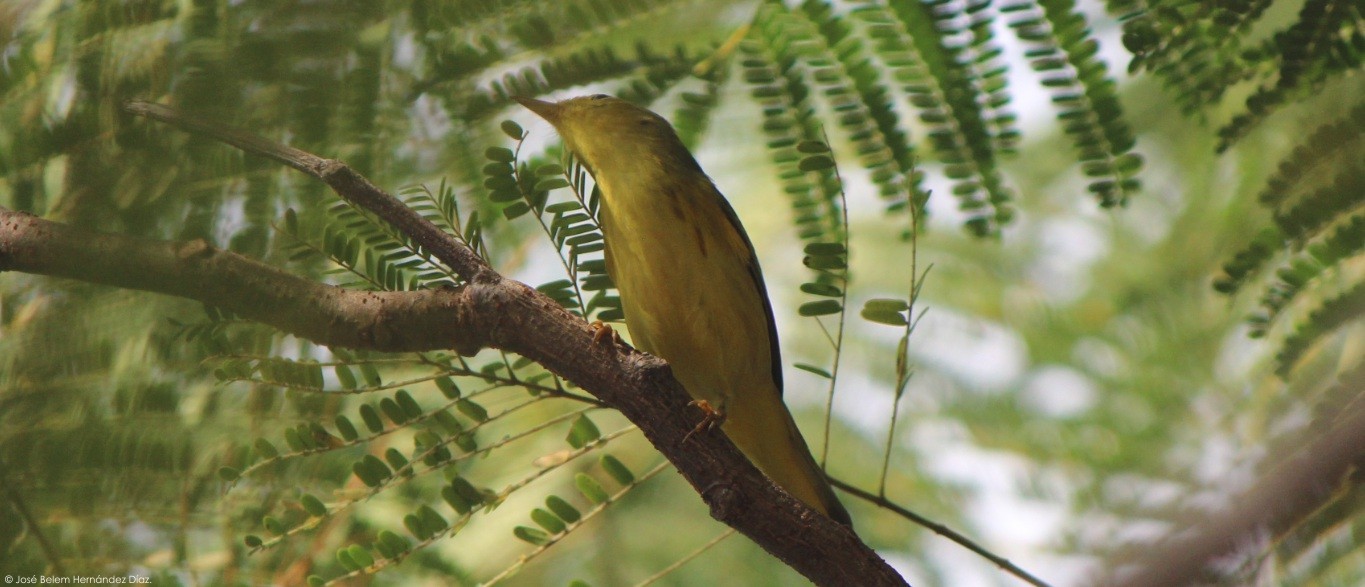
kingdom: Animalia
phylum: Chordata
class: Aves
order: Passeriformes
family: Parulidae
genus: Setophaga
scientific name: Setophaga petechia
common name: Yellow warbler
